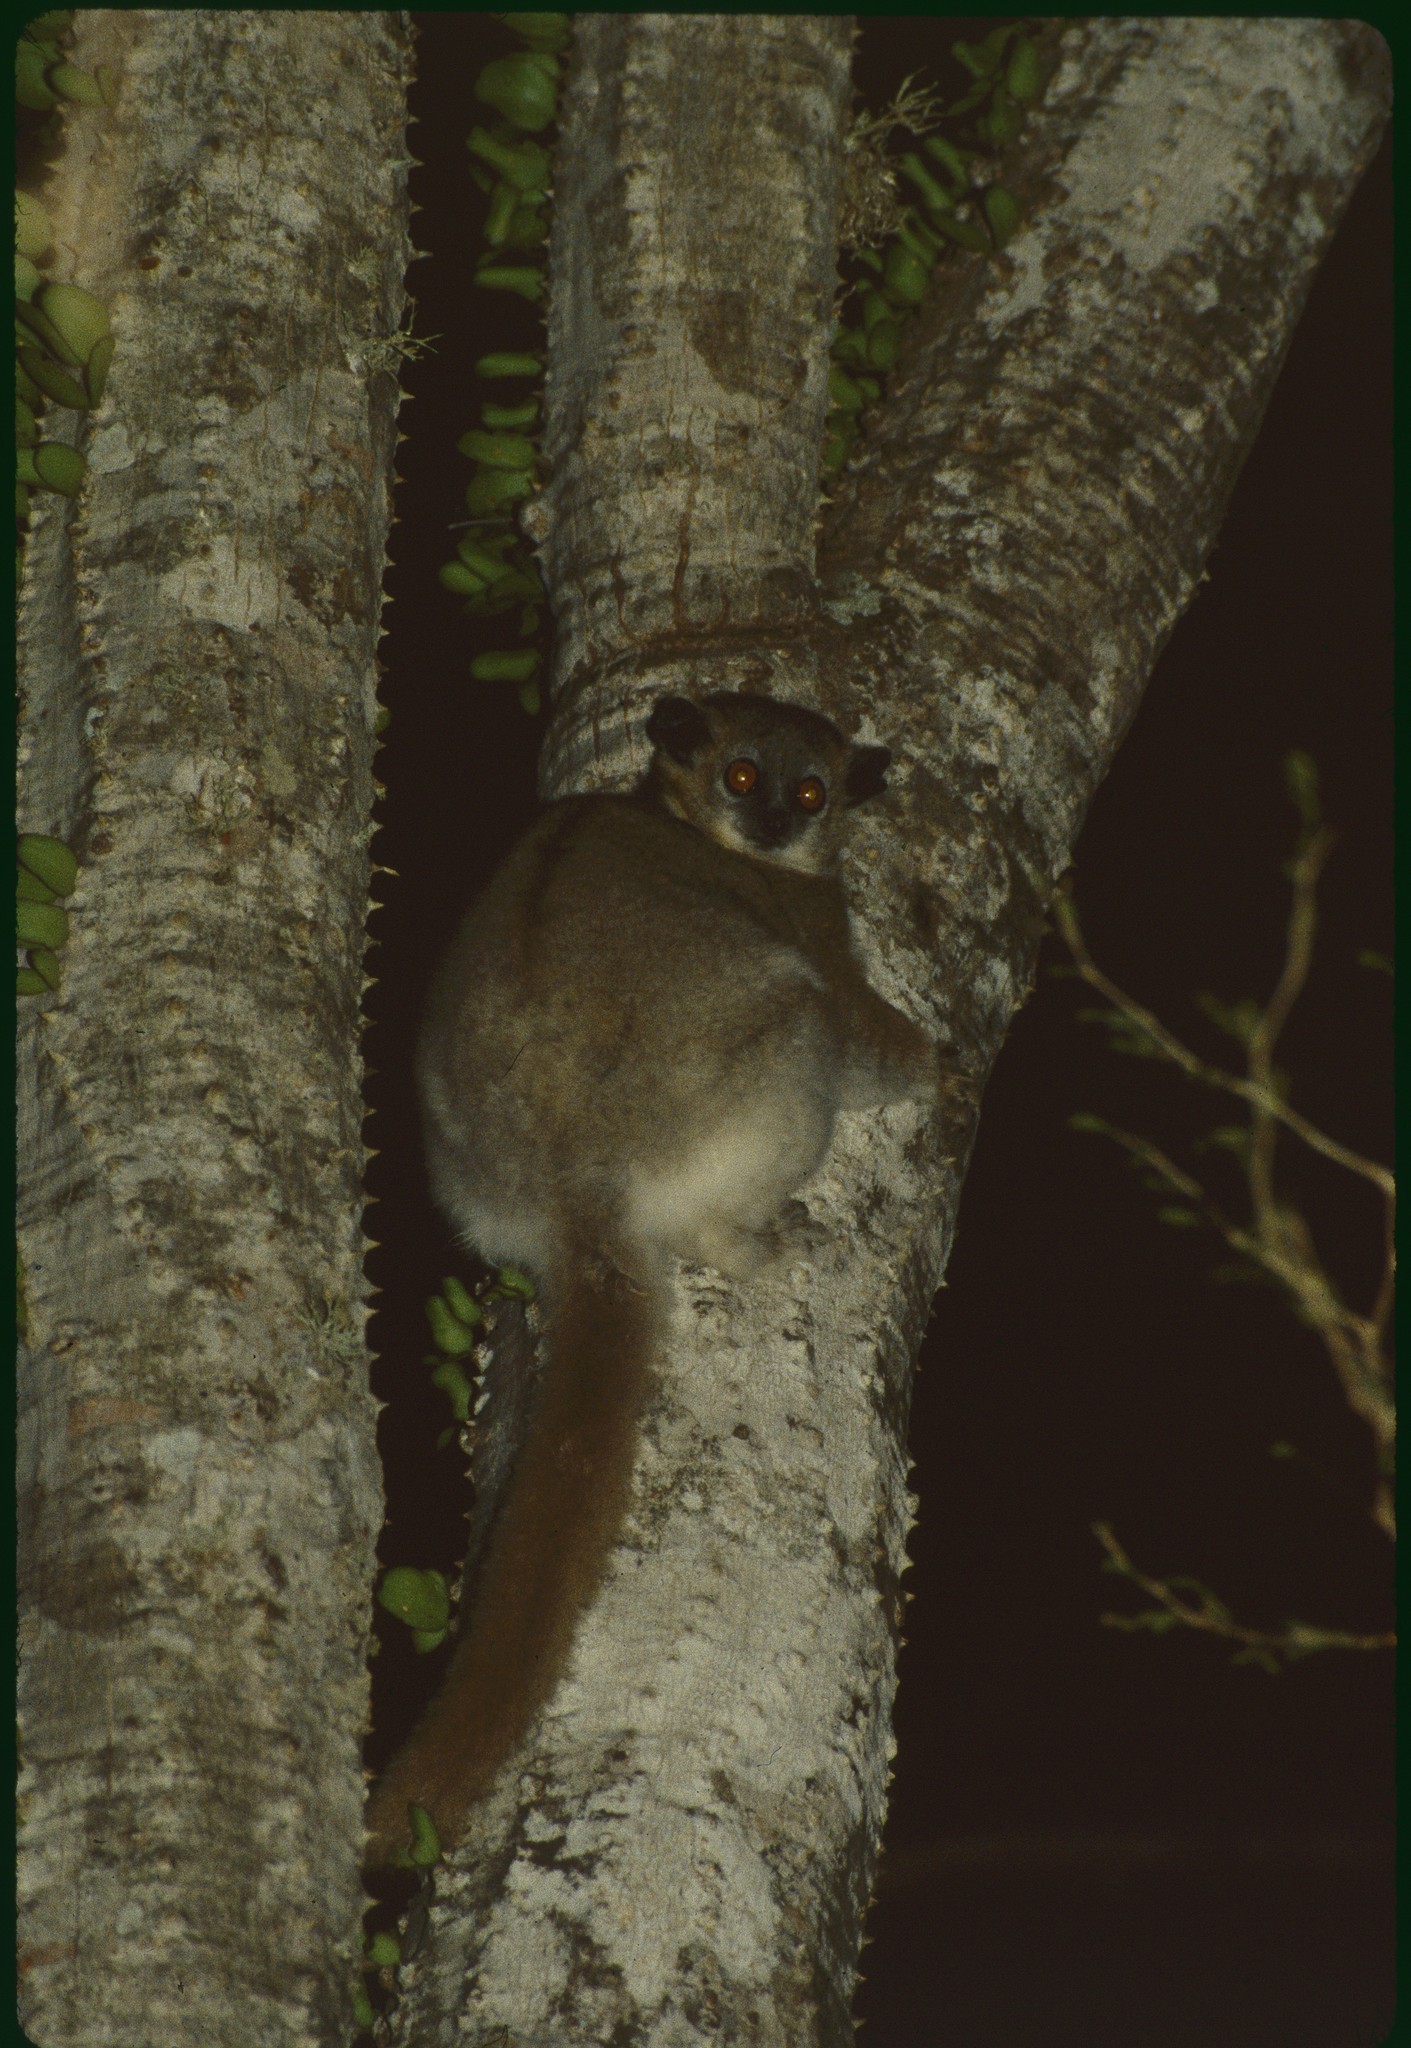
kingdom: Animalia
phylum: Chordata
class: Mammalia
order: Primates
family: Lepilemuridae
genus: Lepilemur
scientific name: Lepilemur leucopus
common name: White-footed sportive lemur
